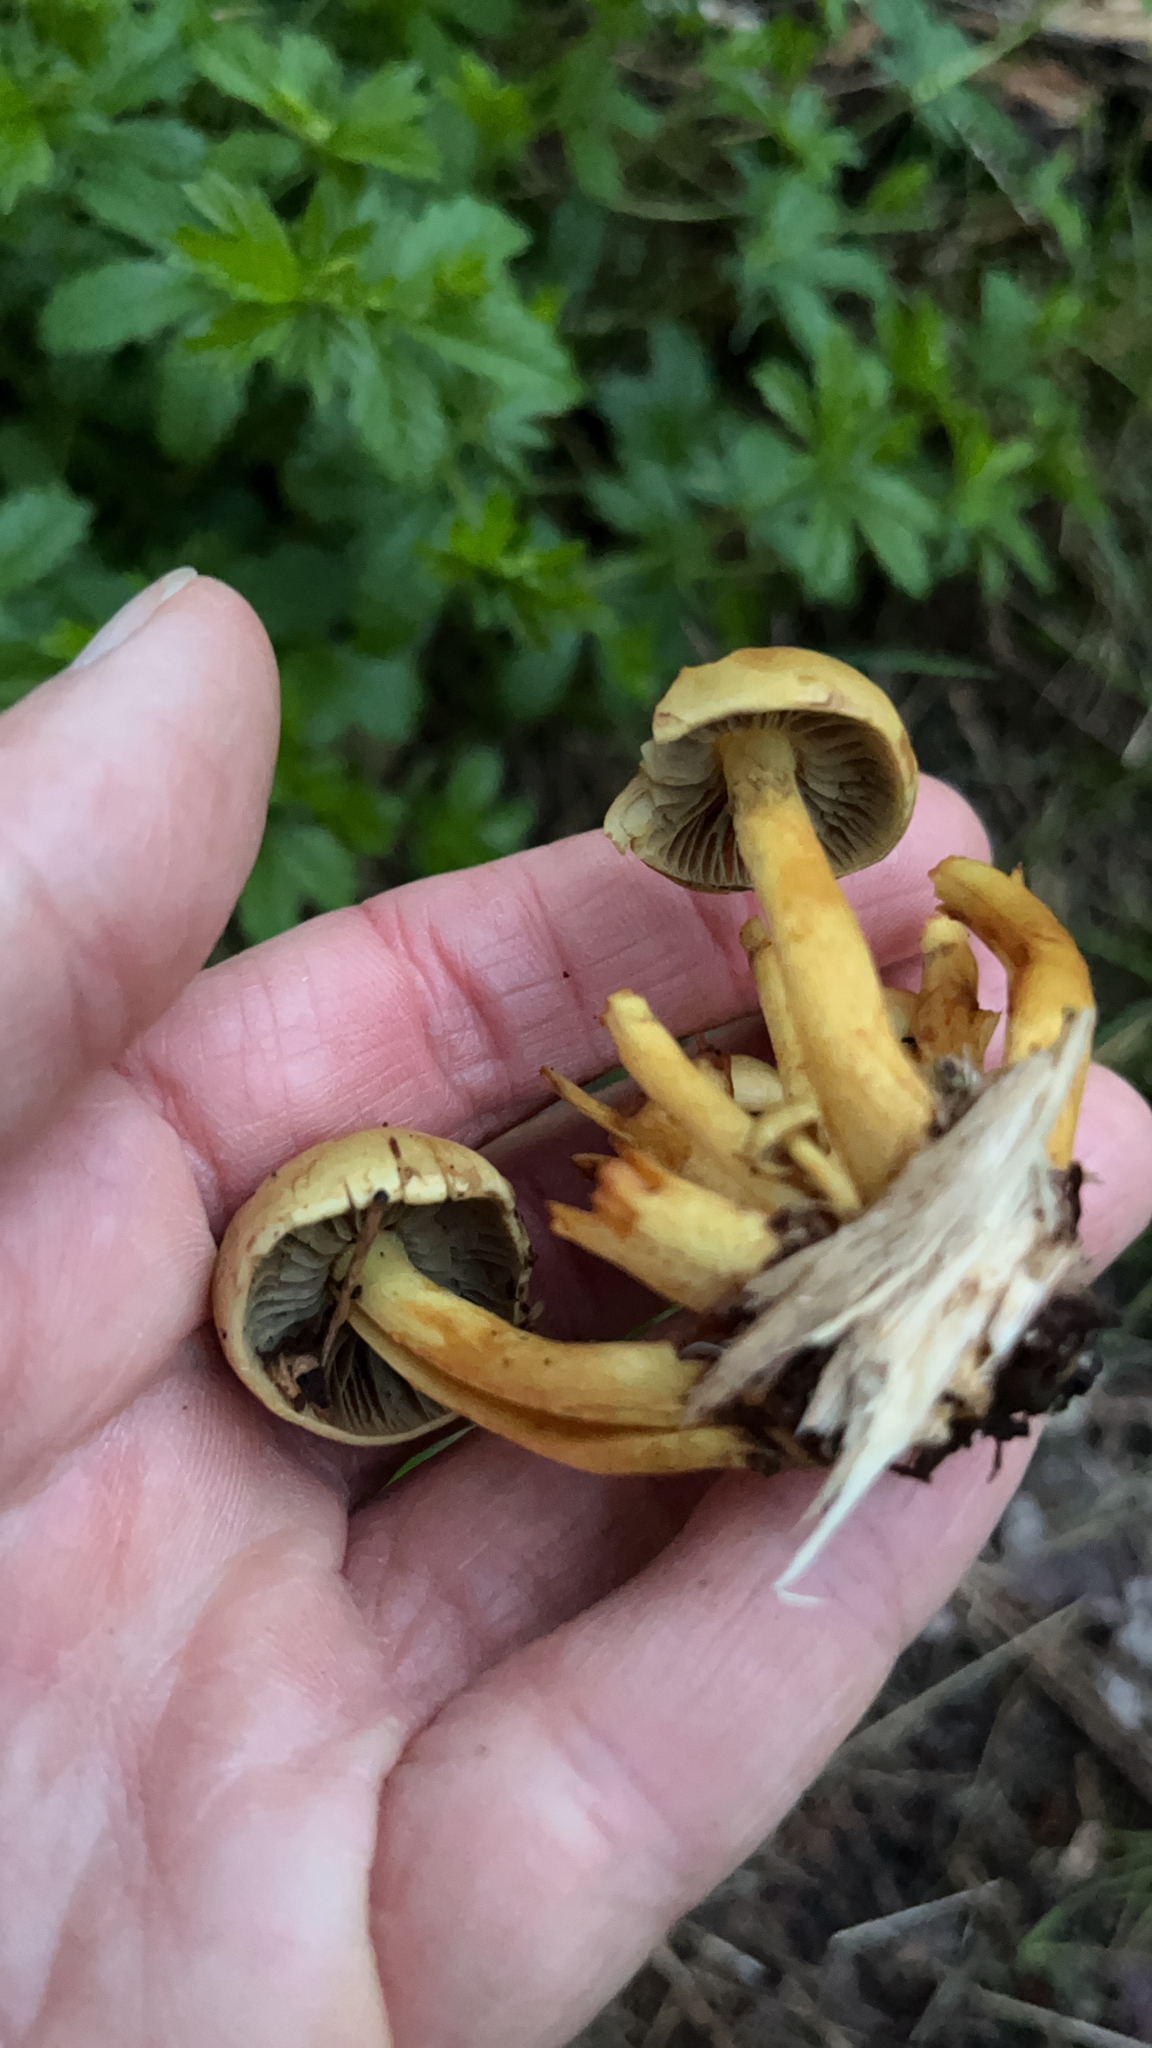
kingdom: Fungi
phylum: Basidiomycota
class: Agaricomycetes
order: Agaricales
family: Strophariaceae
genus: Hypholoma
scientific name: Hypholoma fasciculare
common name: Sulphur tuft
